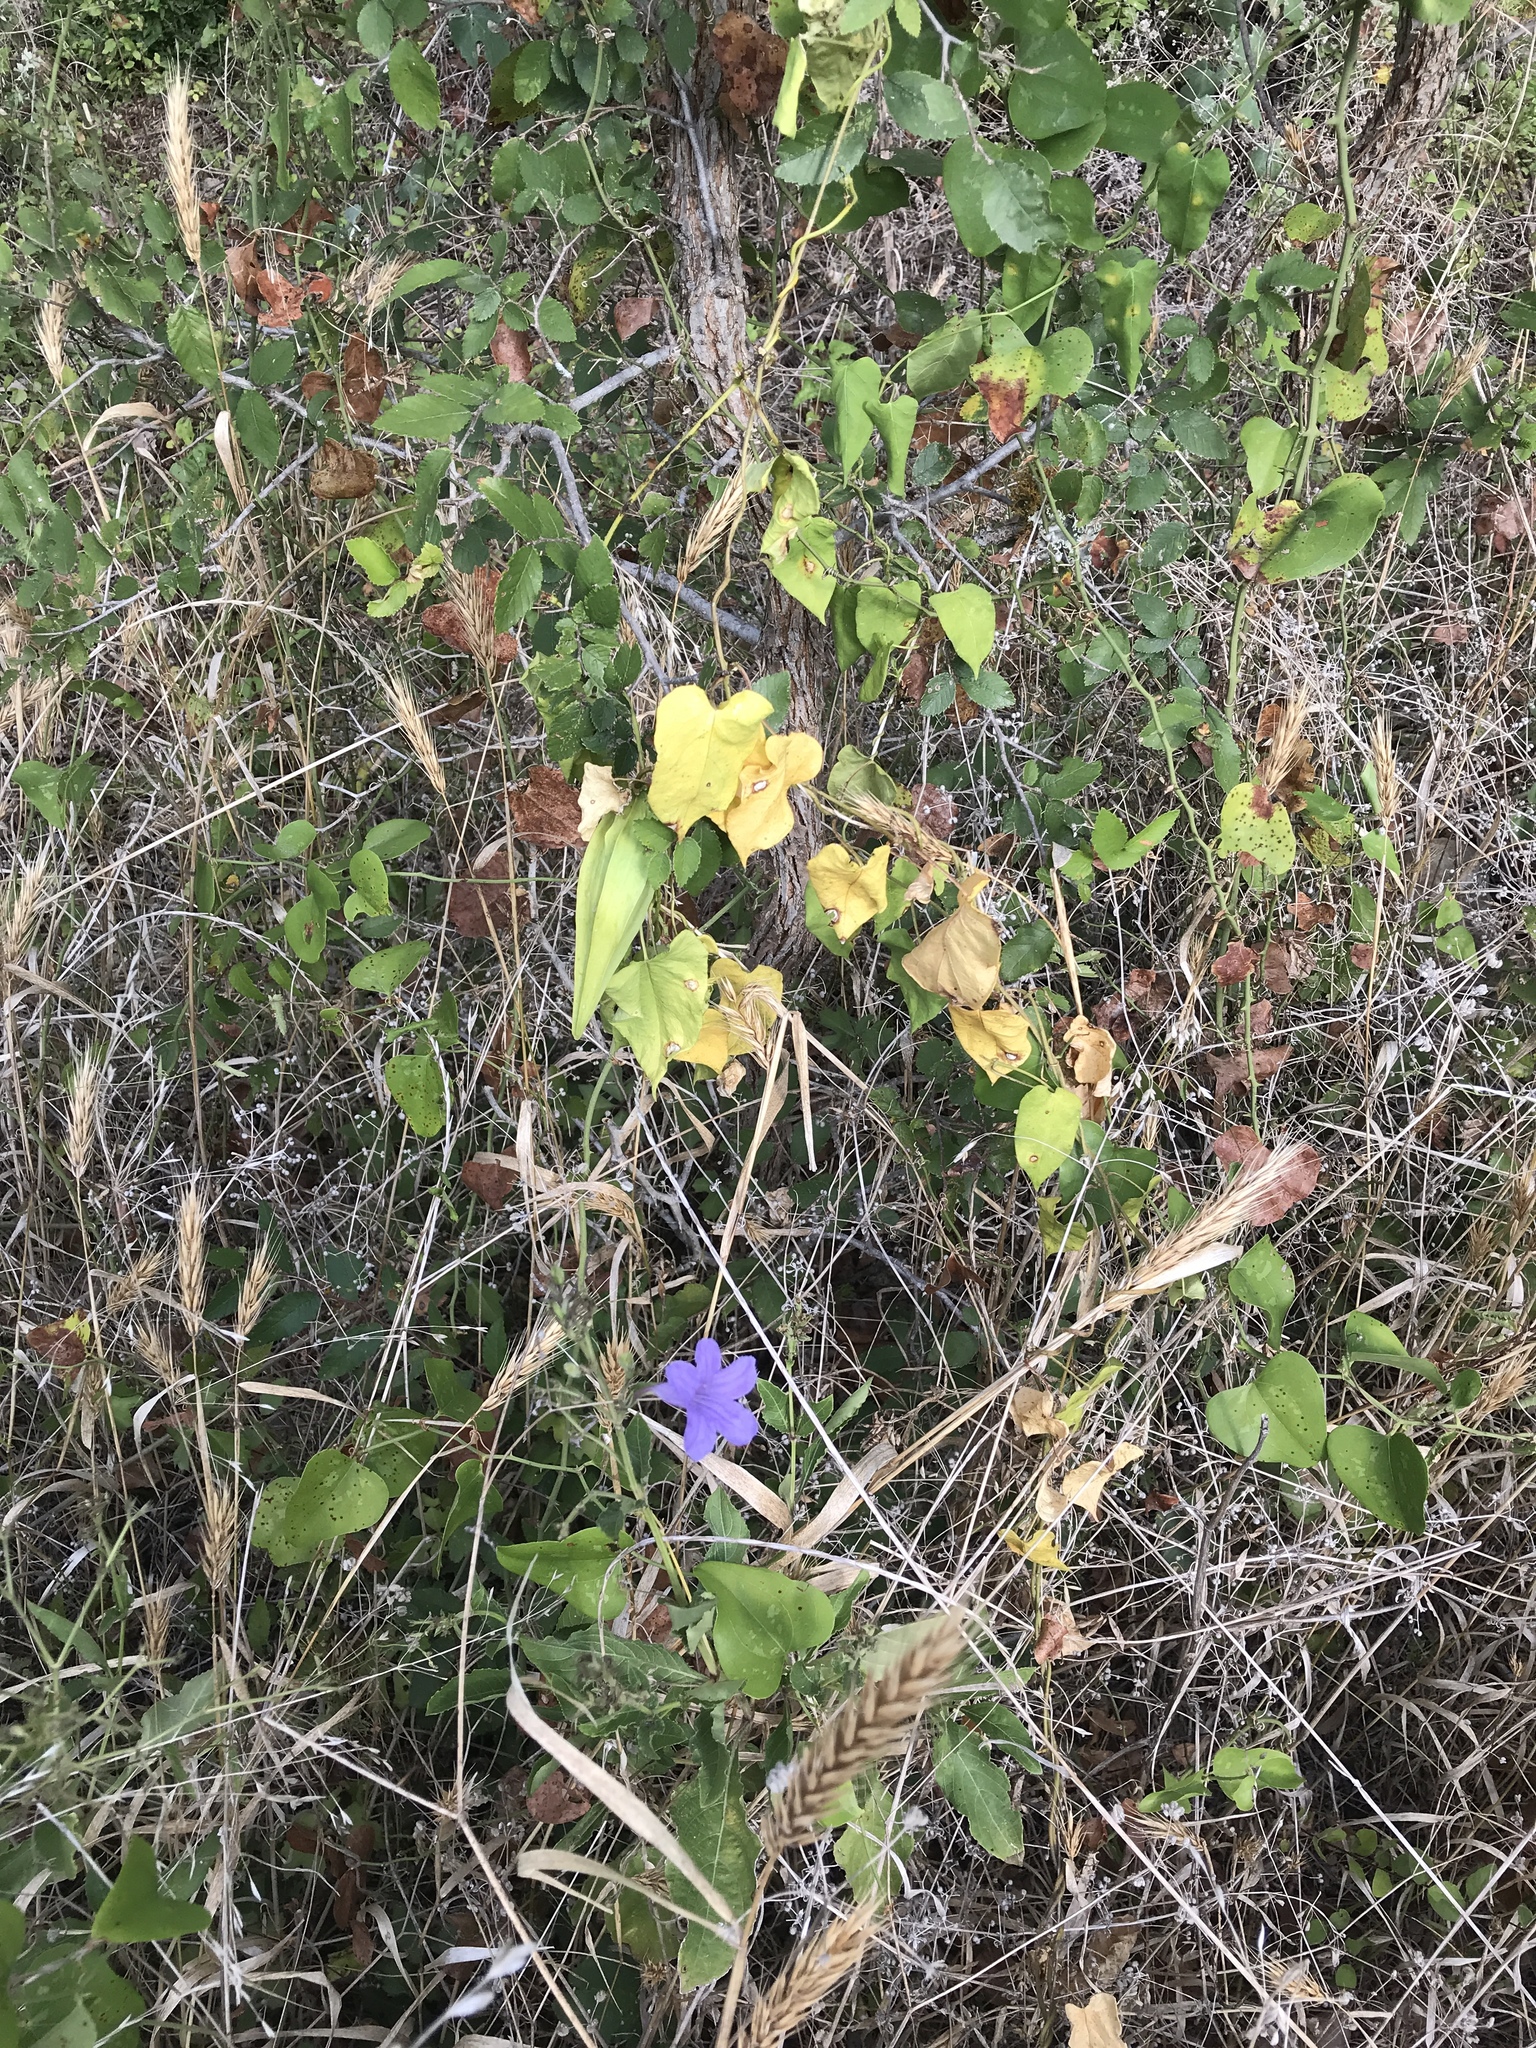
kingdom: Plantae
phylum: Tracheophyta
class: Magnoliopsida
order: Gentianales
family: Apocynaceae
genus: Gonolobus
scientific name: Gonolobus suberosus
